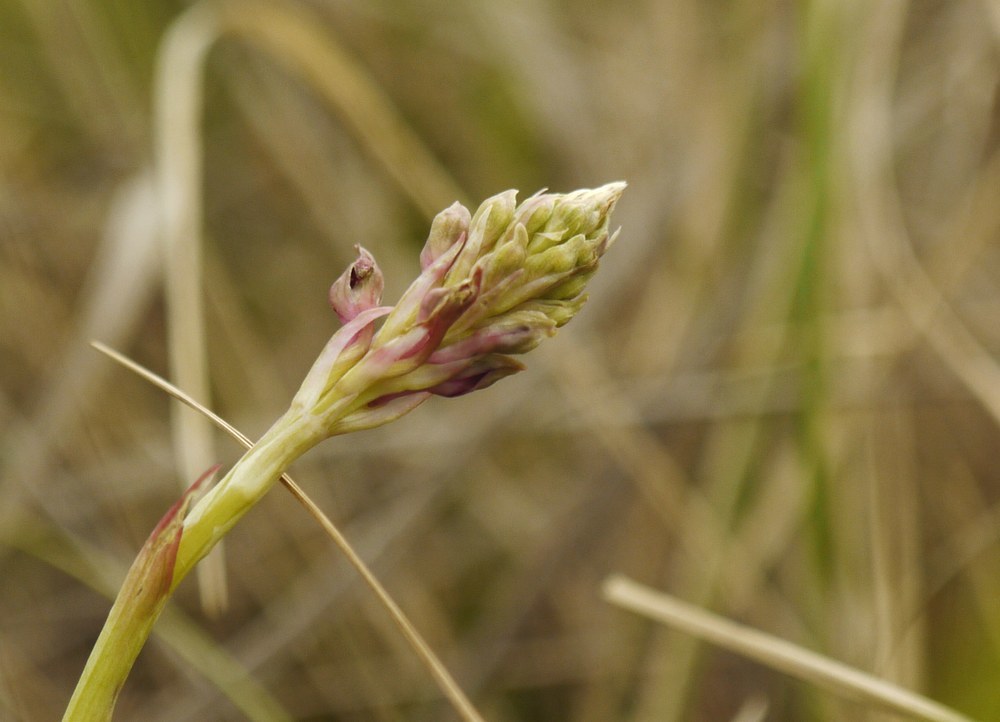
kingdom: Plantae
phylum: Tracheophyta
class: Liliopsida
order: Asparagales
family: Orchidaceae
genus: Anacamptis
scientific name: Anacamptis coriophora
